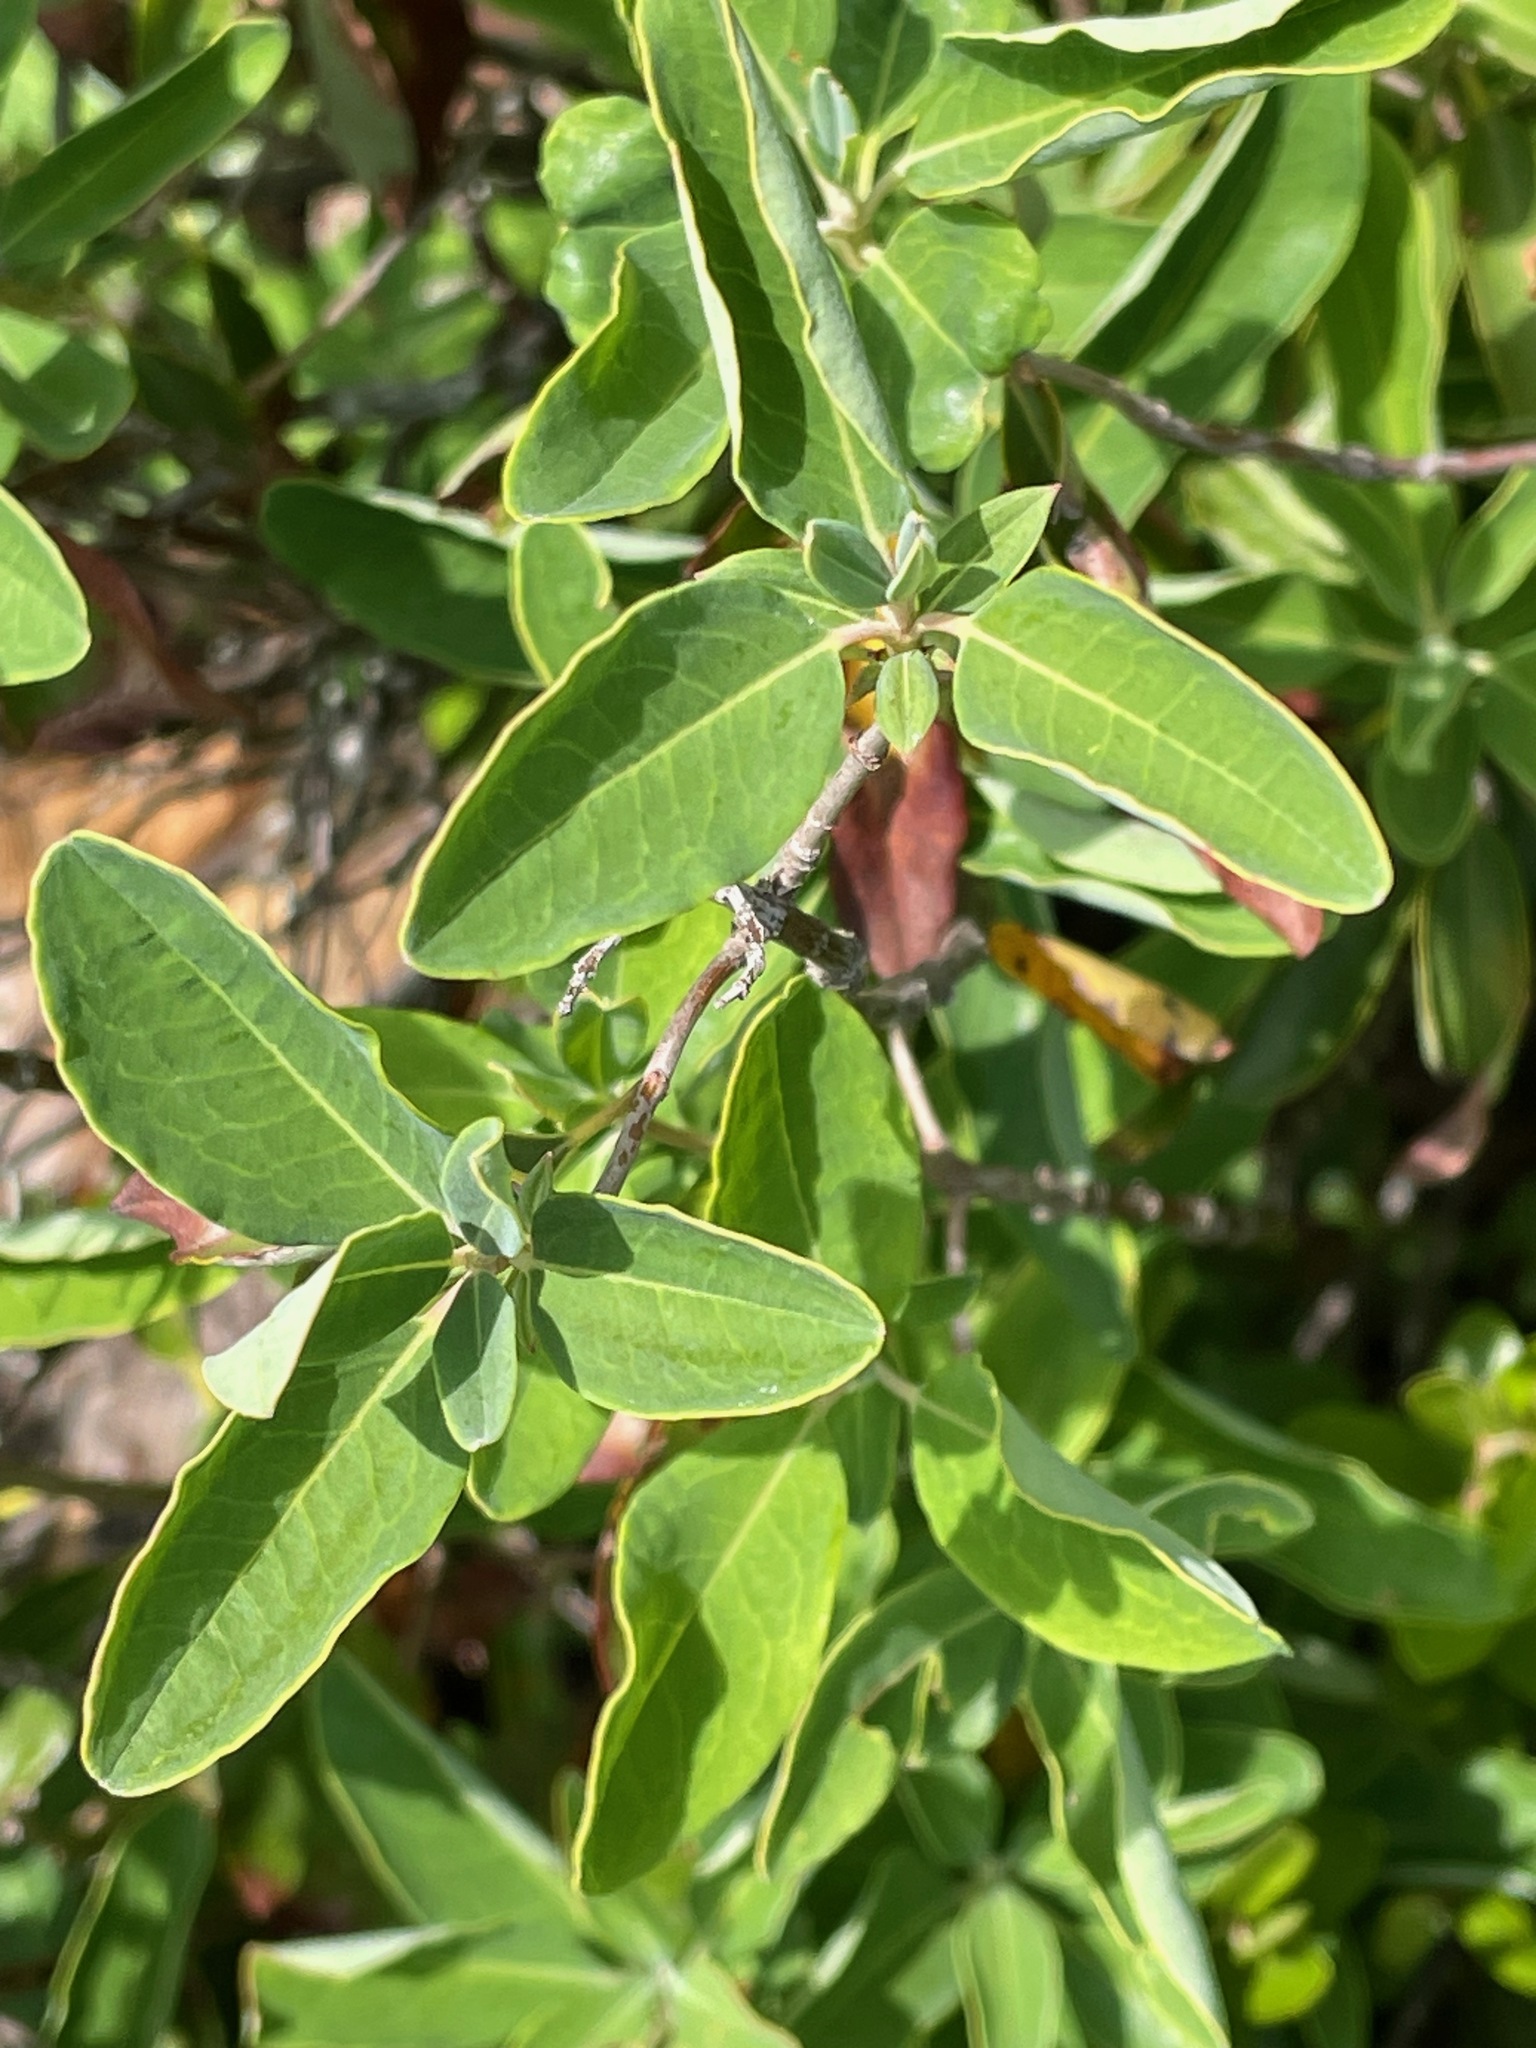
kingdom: Plantae
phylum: Tracheophyta
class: Magnoliopsida
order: Ericales
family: Ericaceae
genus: Kalmia
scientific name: Kalmia angustifolia
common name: Sheep-laurel
